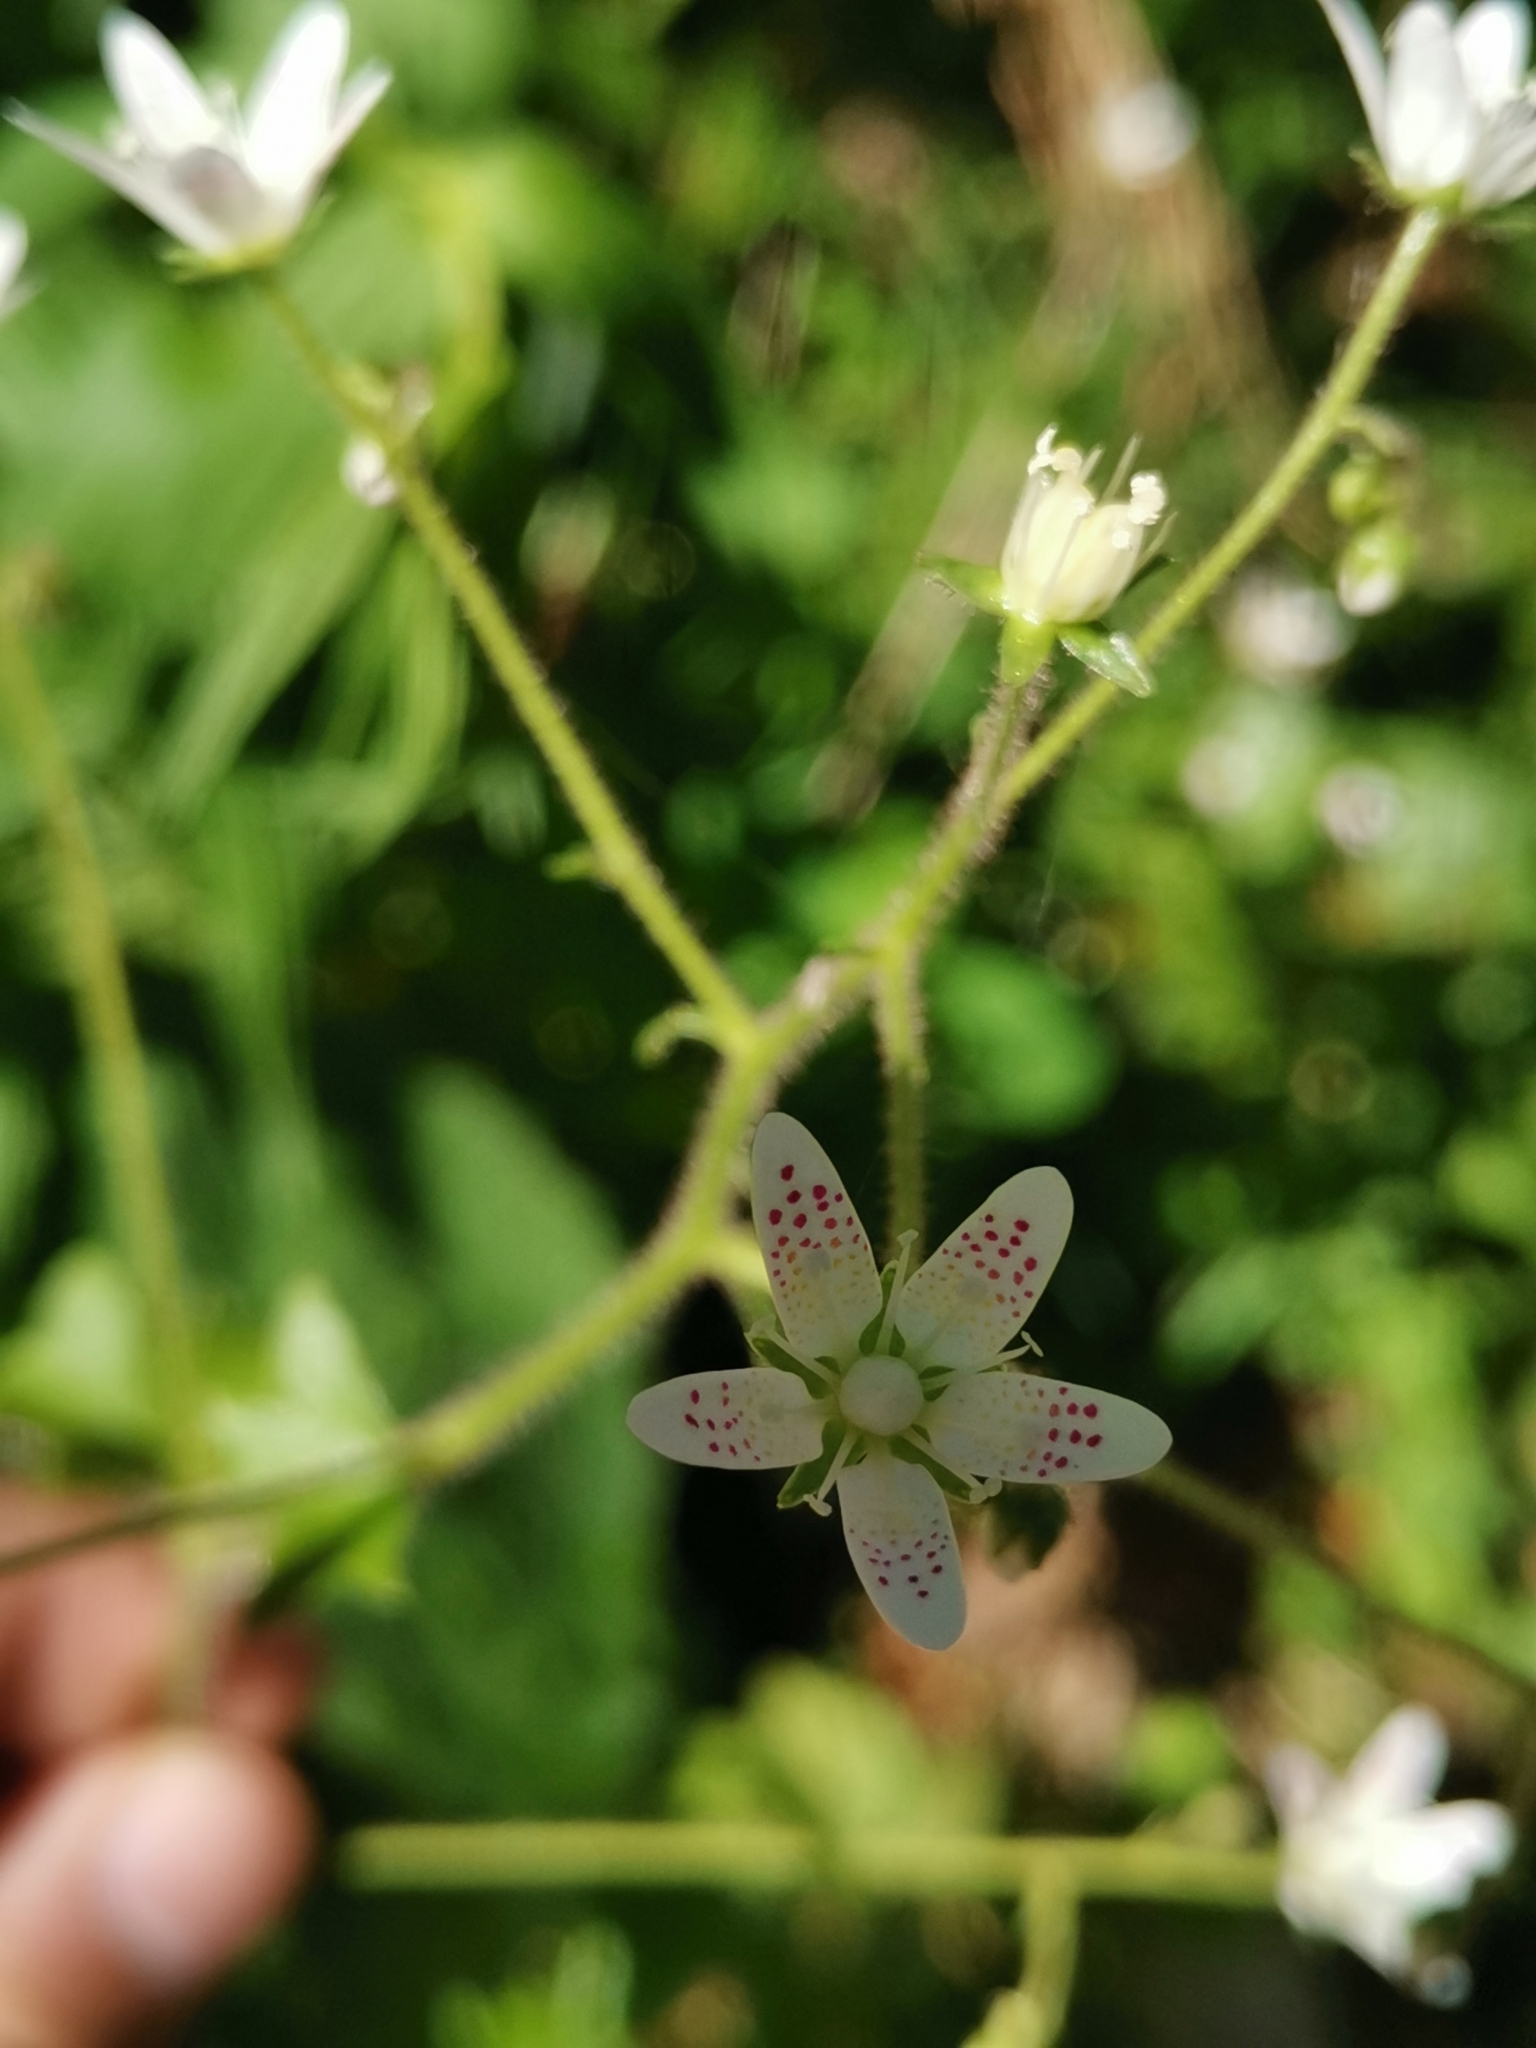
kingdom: Plantae
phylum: Tracheophyta
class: Magnoliopsida
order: Saxifragales
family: Saxifragaceae
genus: Saxifraga
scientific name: Saxifraga rotundifolia
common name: Round-leaved saxifrage
